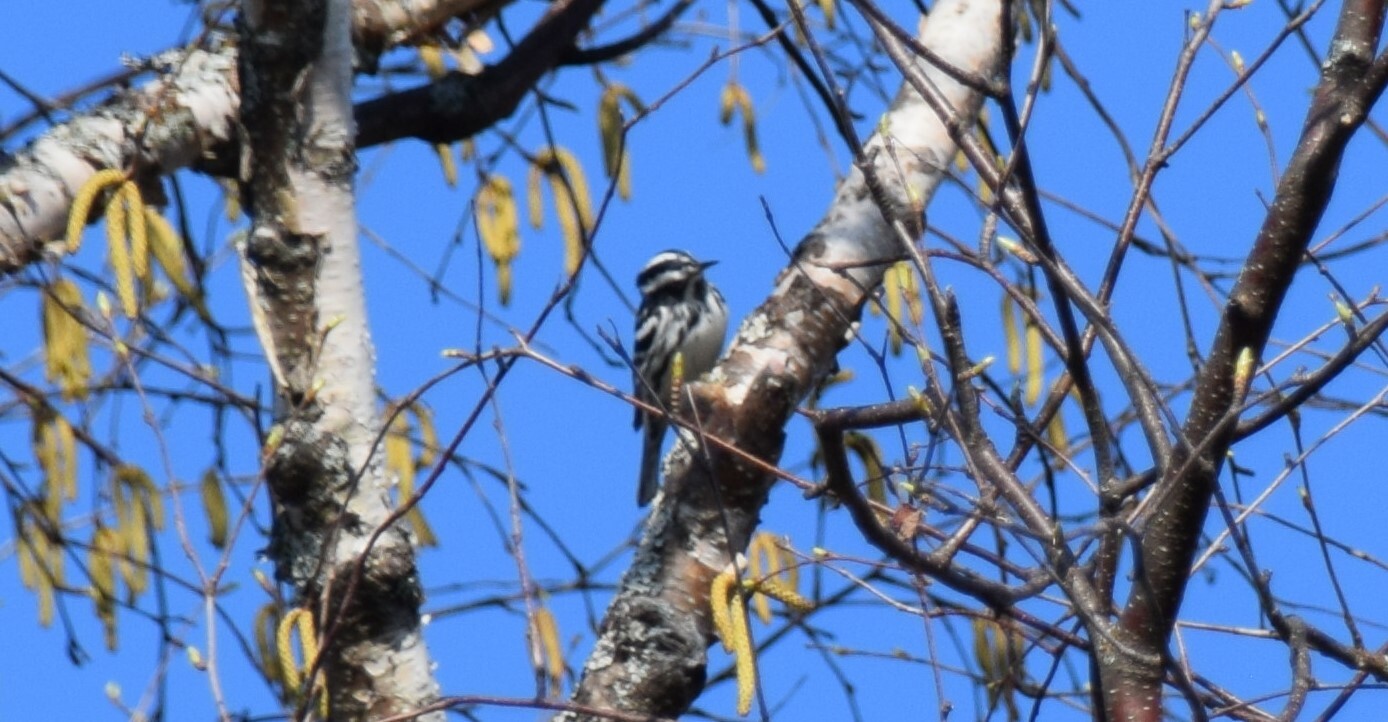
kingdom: Animalia
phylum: Chordata
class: Aves
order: Passeriformes
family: Parulidae
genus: Mniotilta
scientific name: Mniotilta varia
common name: Black-and-white warbler
